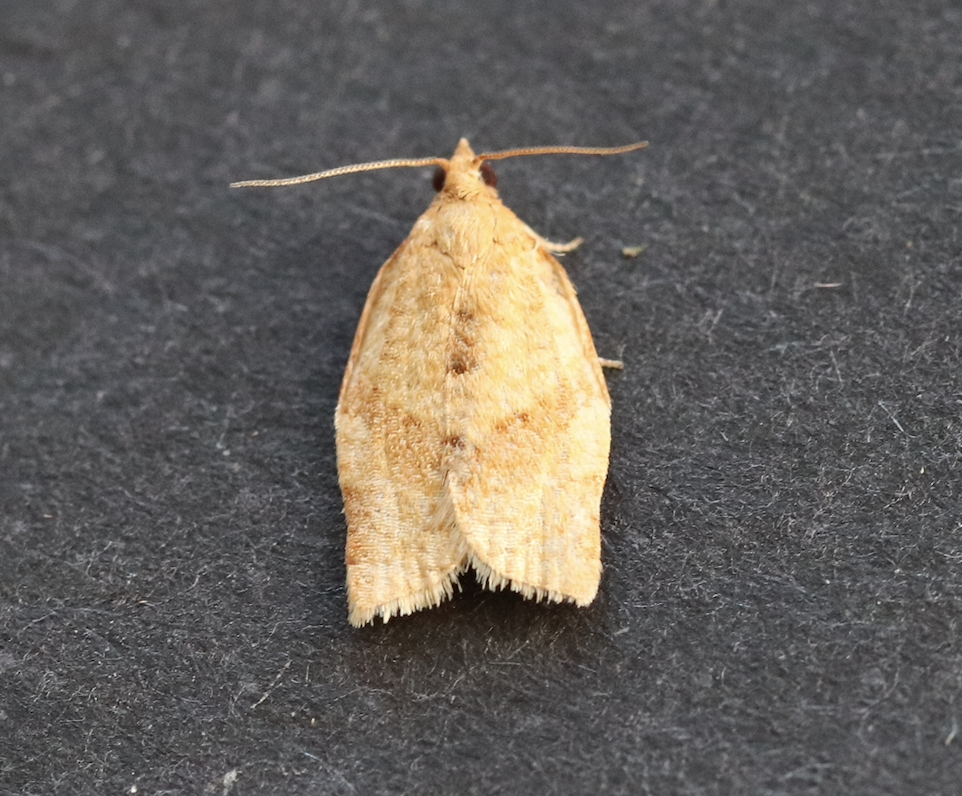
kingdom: Animalia
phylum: Arthropoda
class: Insecta
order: Lepidoptera
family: Tortricidae
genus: Clepsis
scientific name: Clepsis consimilana
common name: Privet tortrix
